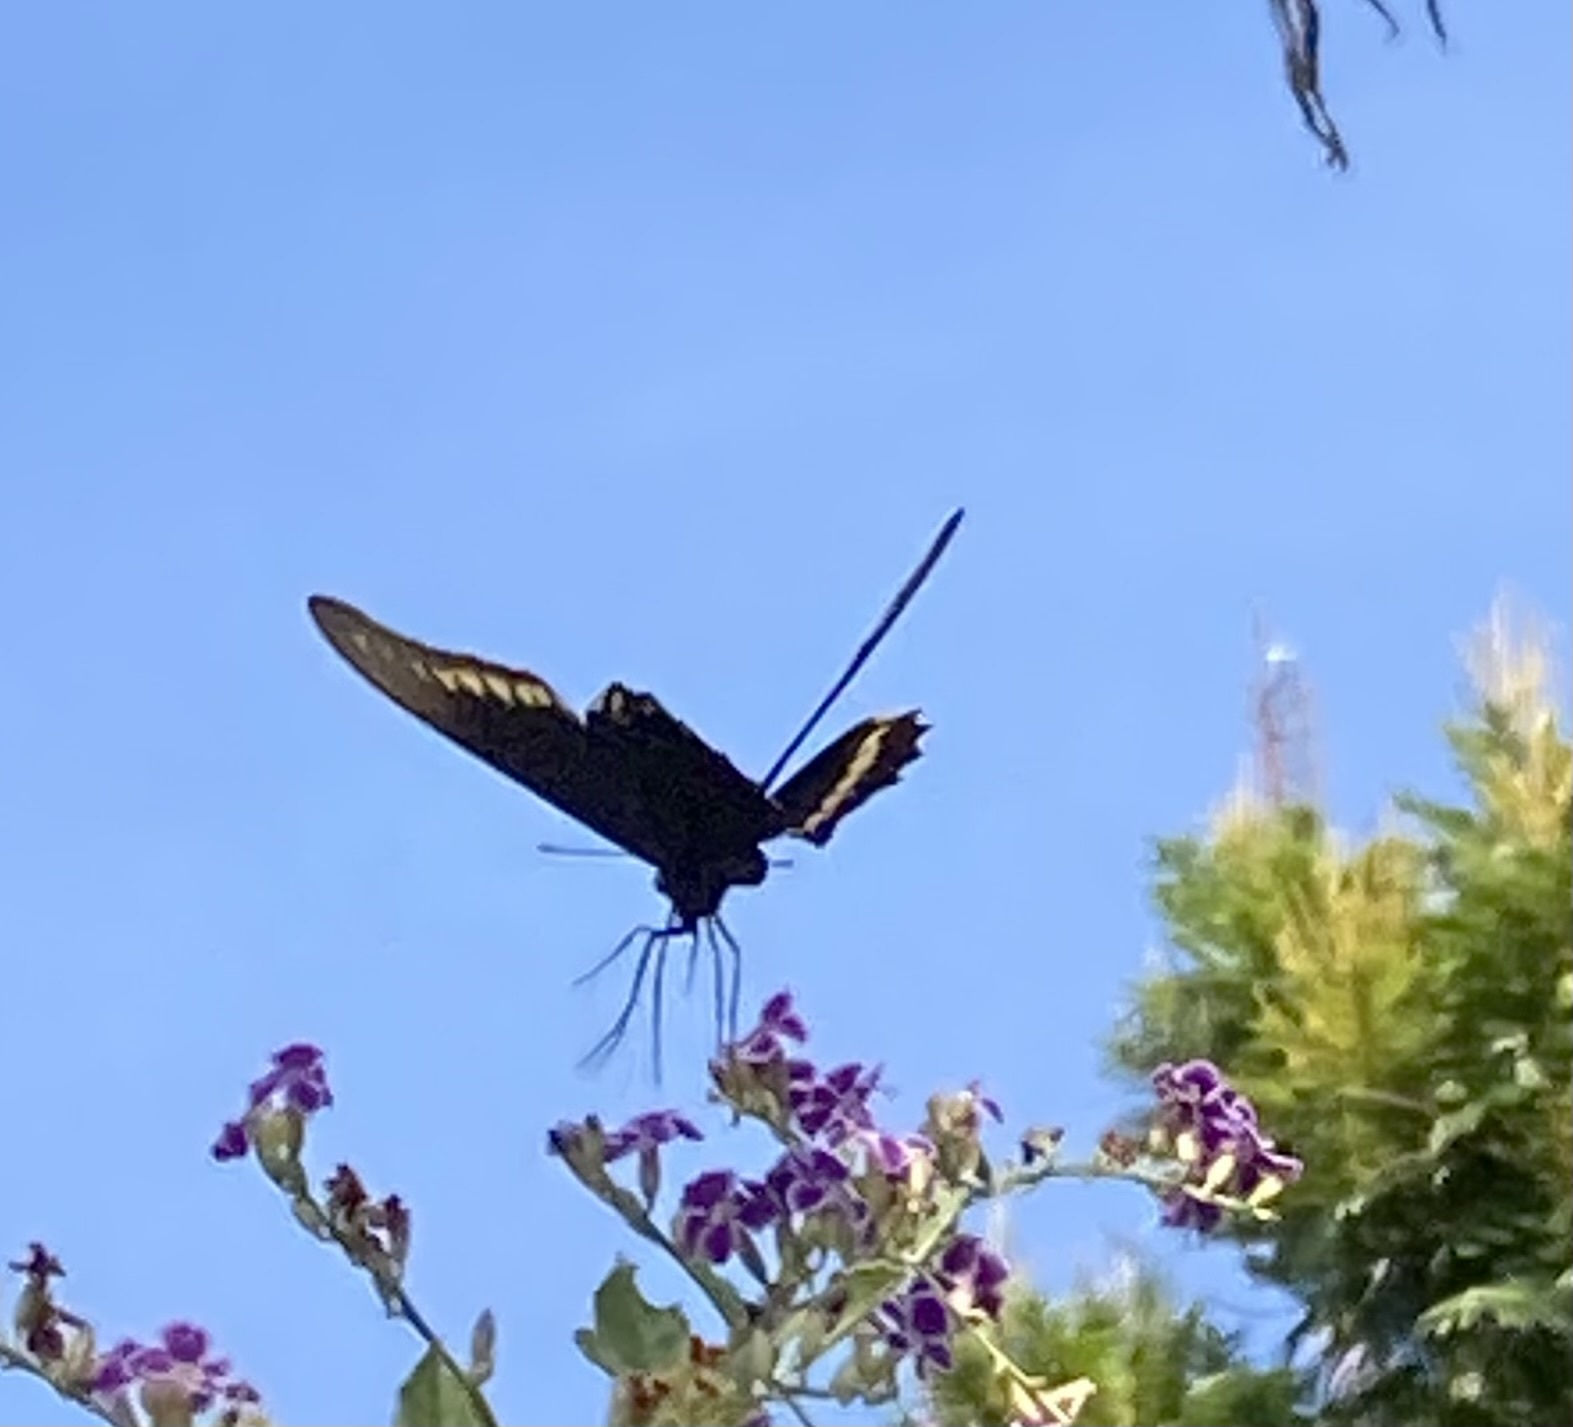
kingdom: Animalia
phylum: Arthropoda
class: Insecta
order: Lepidoptera
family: Papilionidae
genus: Battus
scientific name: Battus polydamas
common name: Polydamas swallowtail
